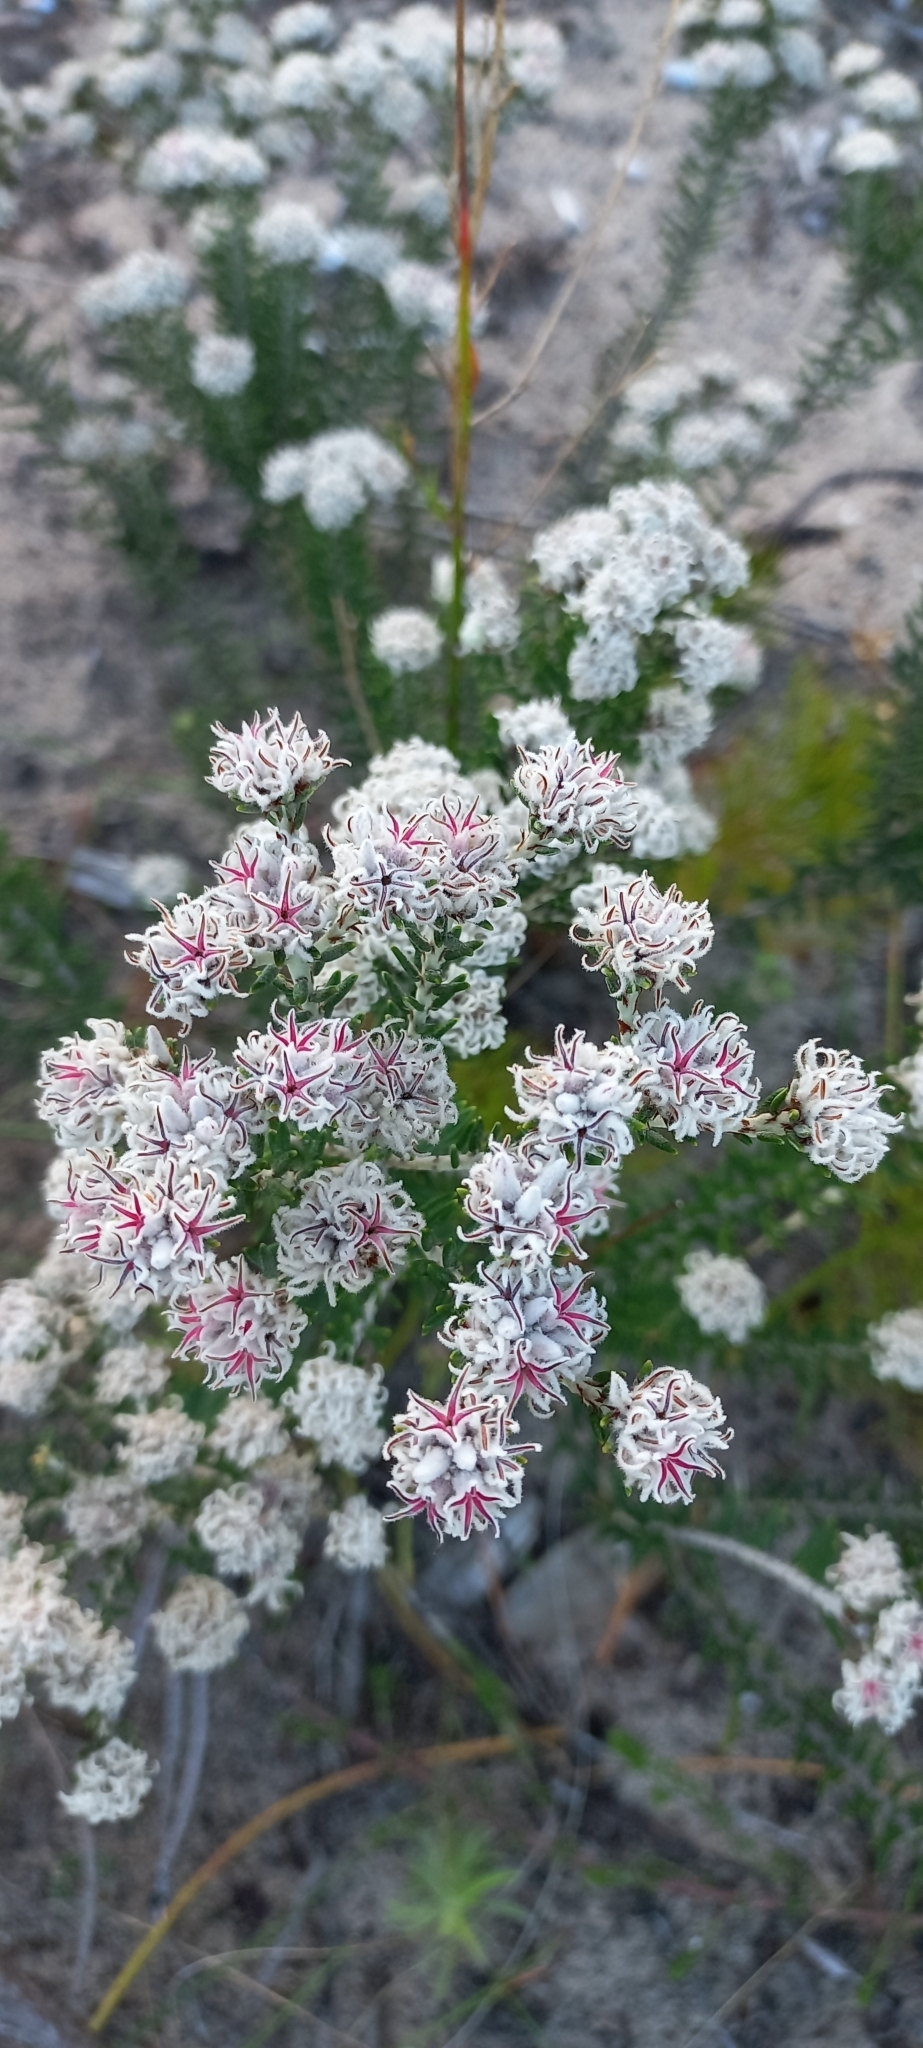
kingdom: Plantae
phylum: Tracheophyta
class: Magnoliopsida
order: Rosales
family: Rhamnaceae
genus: Trichocephalus
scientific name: Trichocephalus stipularis
